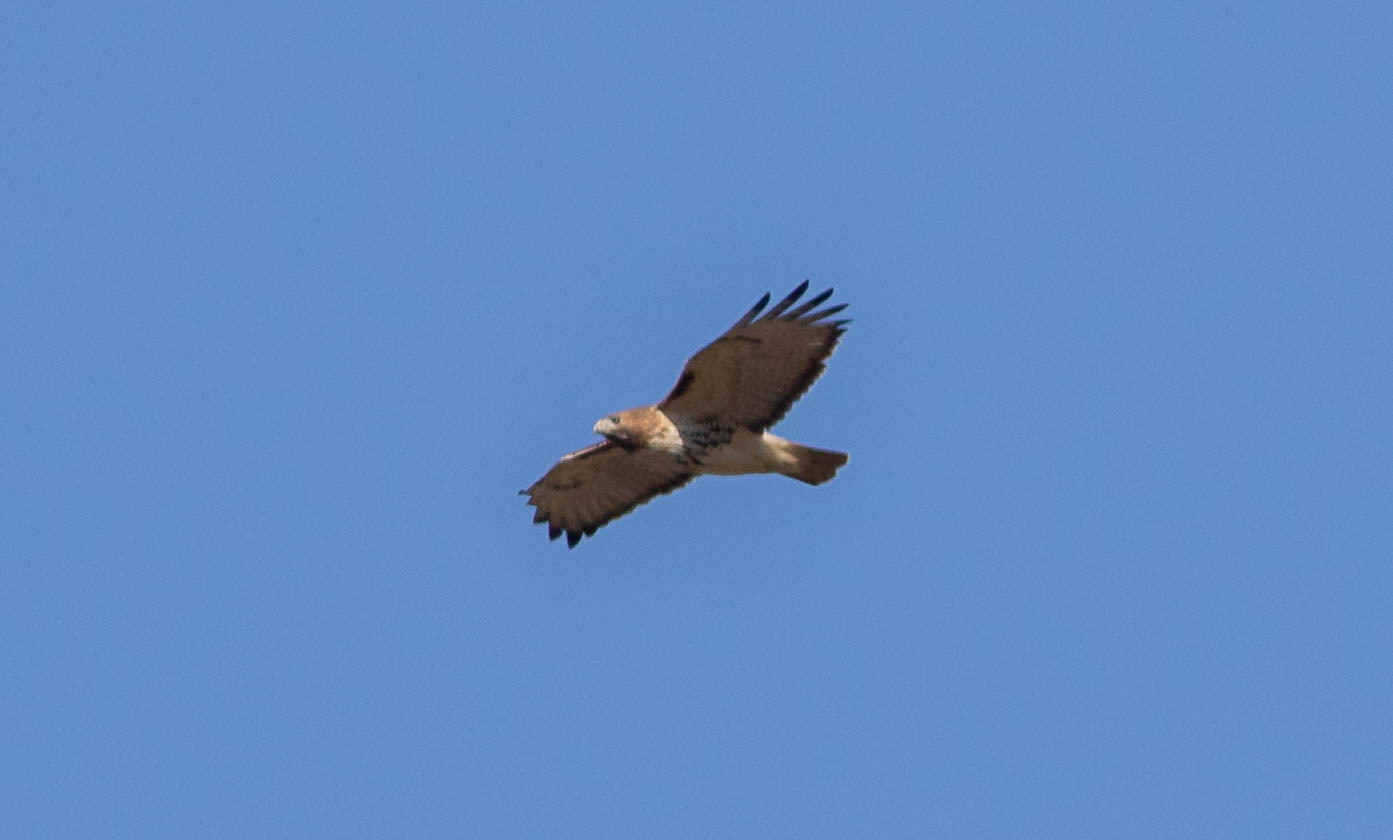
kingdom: Animalia
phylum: Chordata
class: Aves
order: Accipitriformes
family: Accipitridae
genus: Buteo
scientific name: Buteo jamaicensis
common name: Red-tailed hawk
